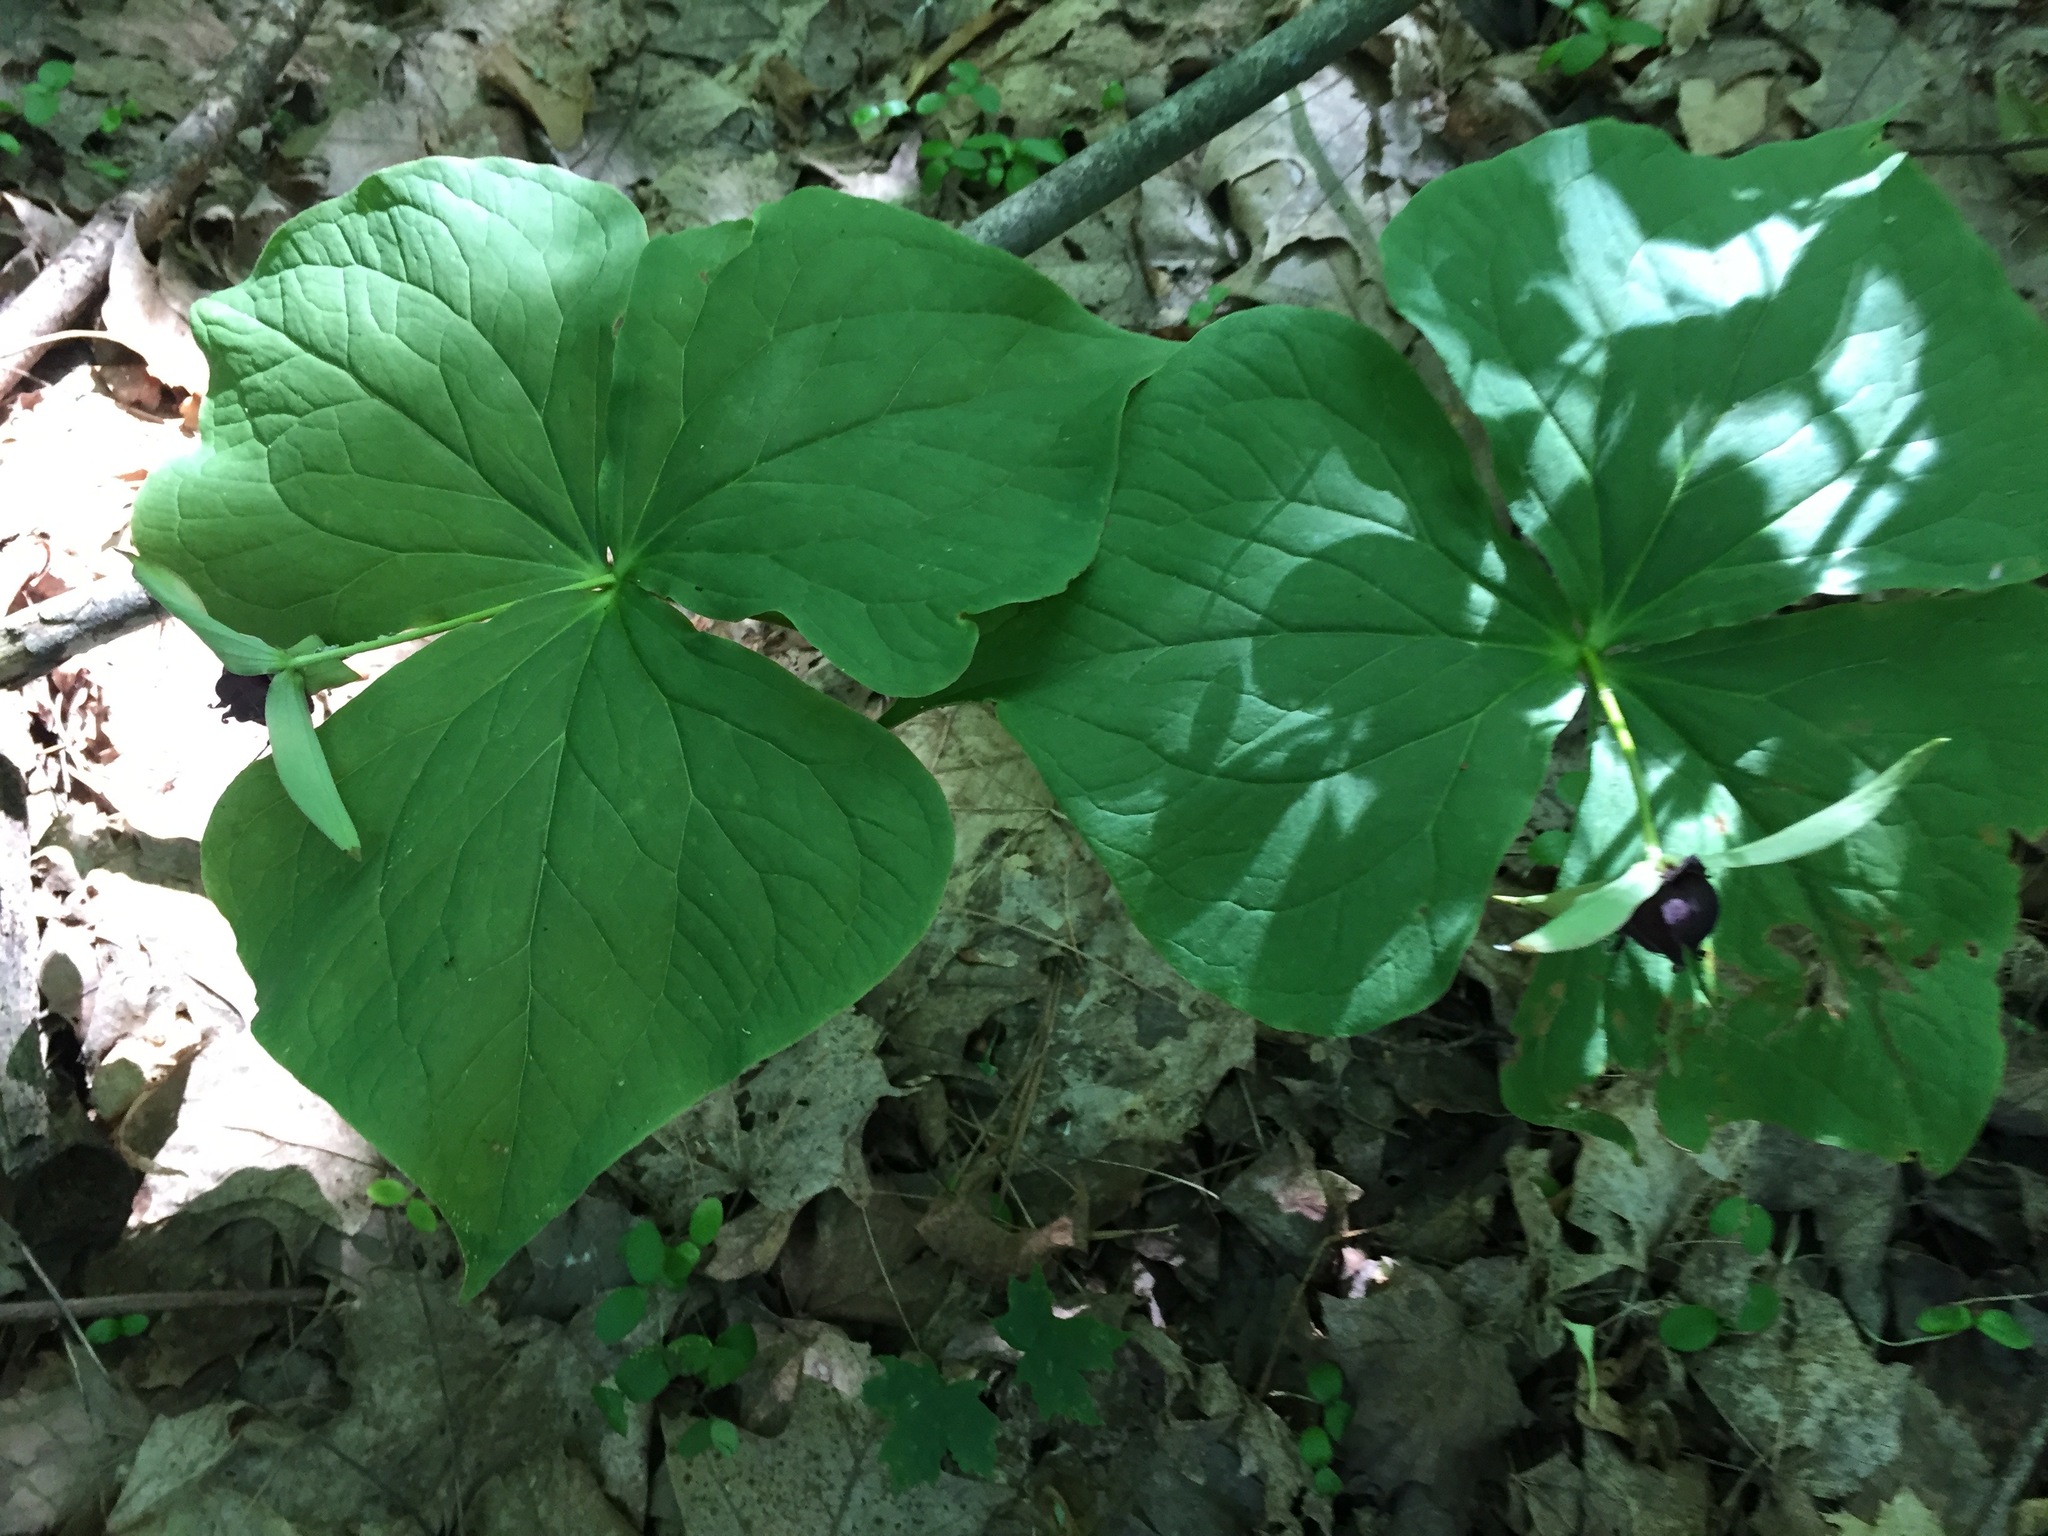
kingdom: Plantae
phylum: Tracheophyta
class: Liliopsida
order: Liliales
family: Melanthiaceae
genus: Trillium
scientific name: Trillium erectum
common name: Purple trillium
